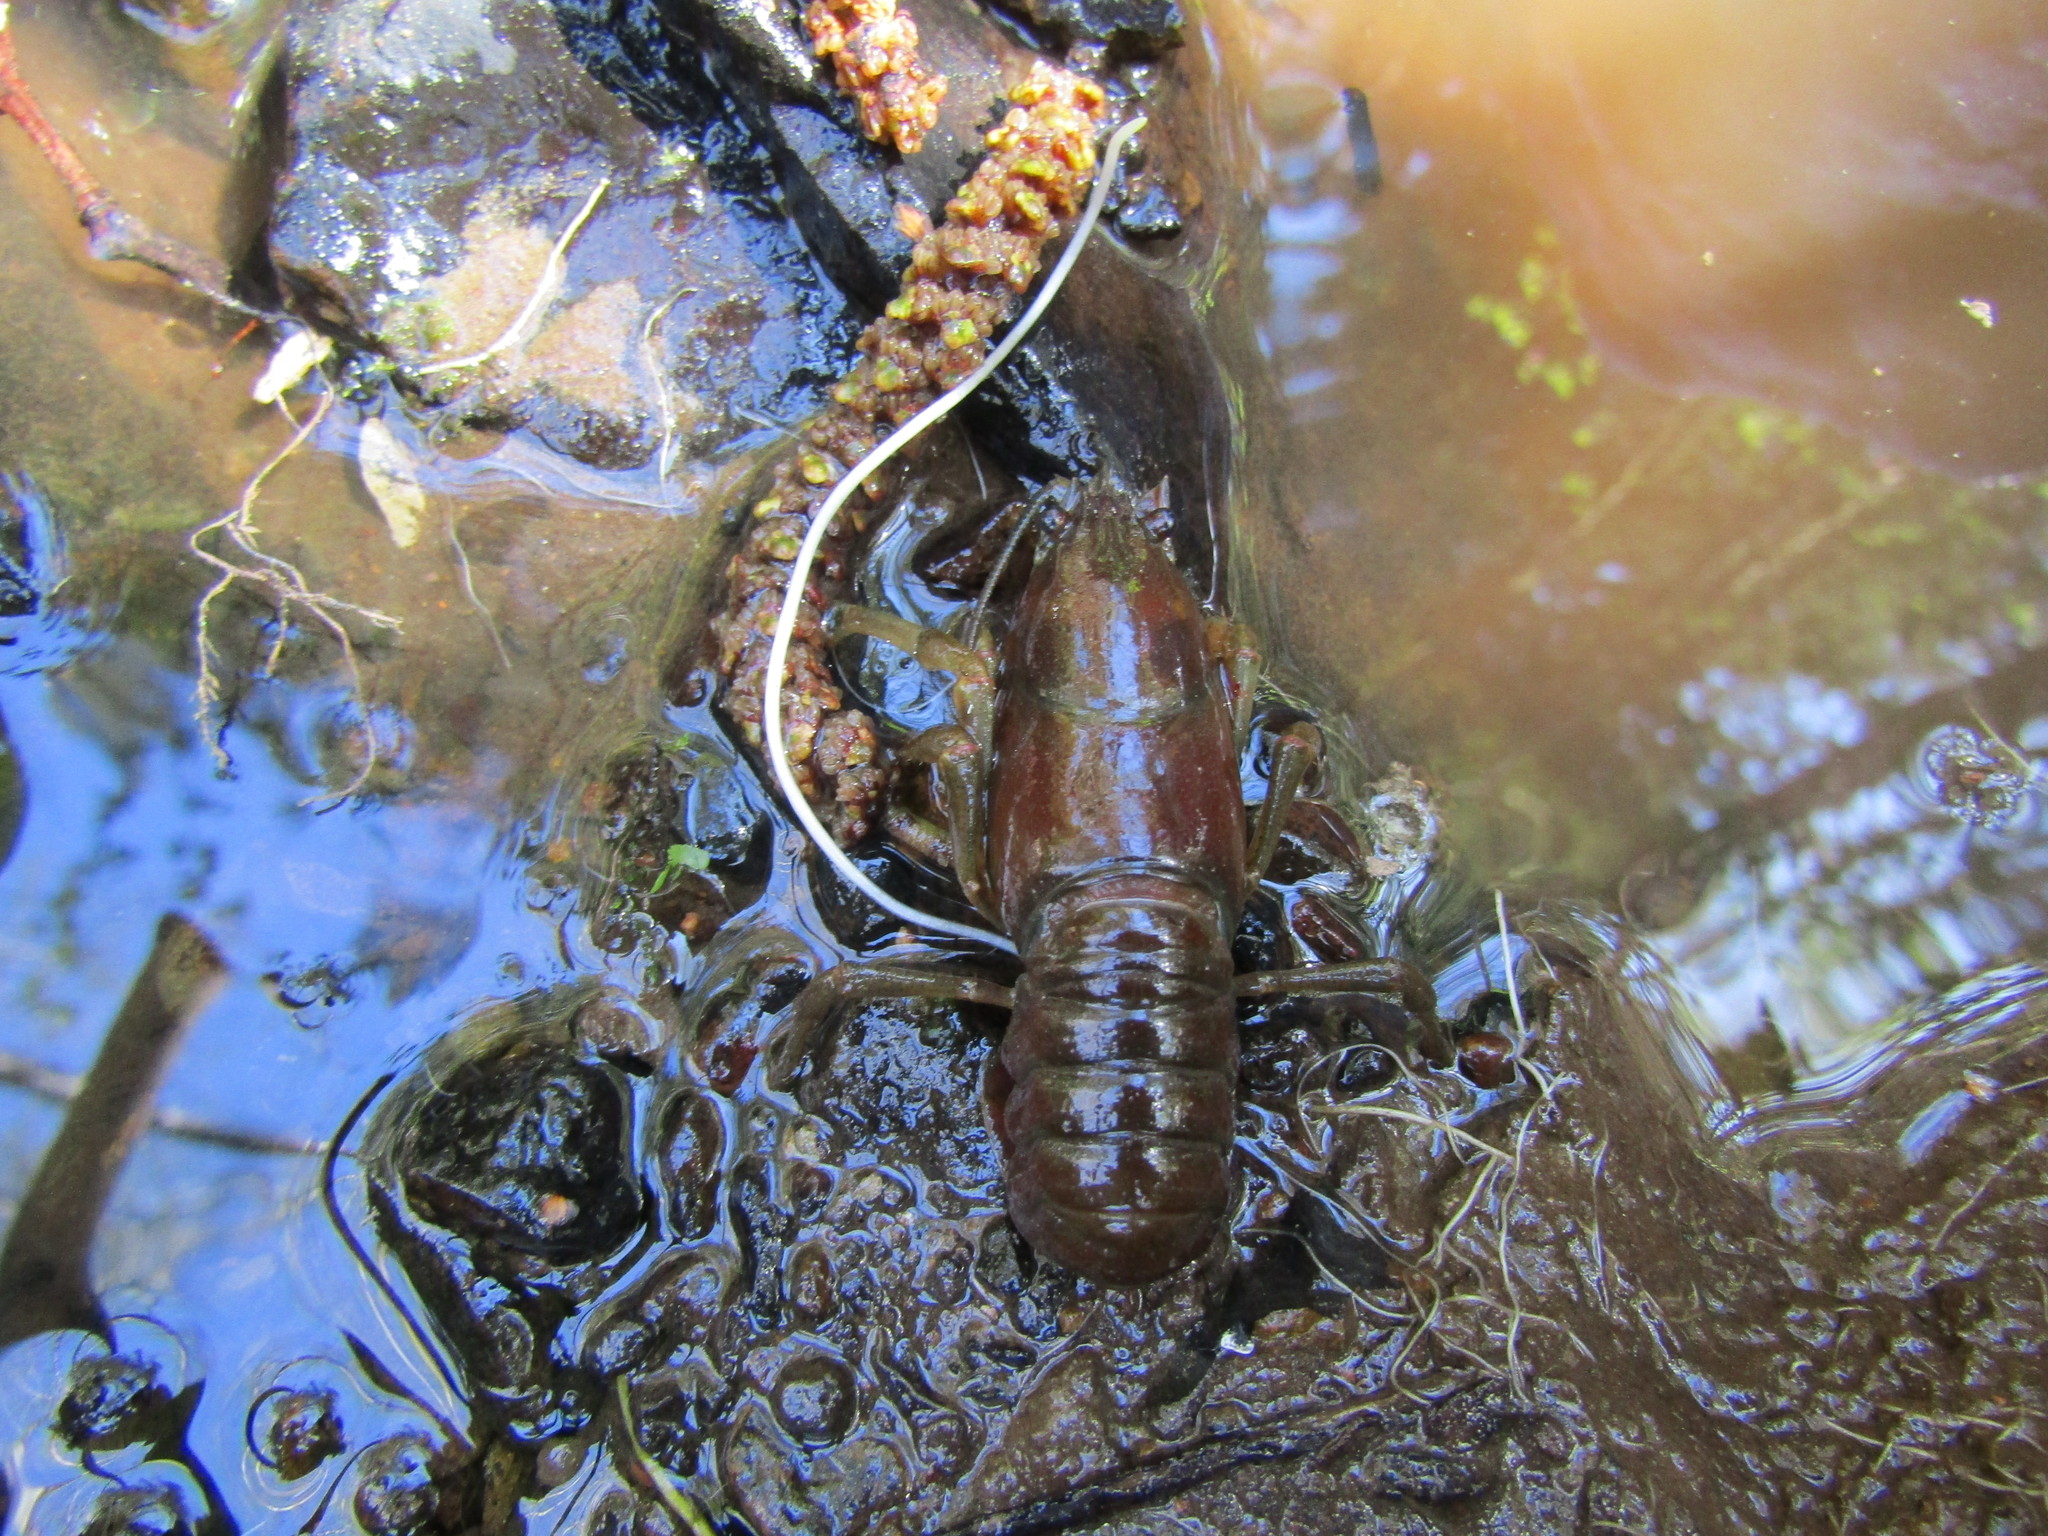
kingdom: Animalia
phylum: Arthropoda
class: Malacostraca
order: Decapoda
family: Astacidae
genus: Pacifastacus
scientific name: Pacifastacus leniusculus
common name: Signal crayfish
